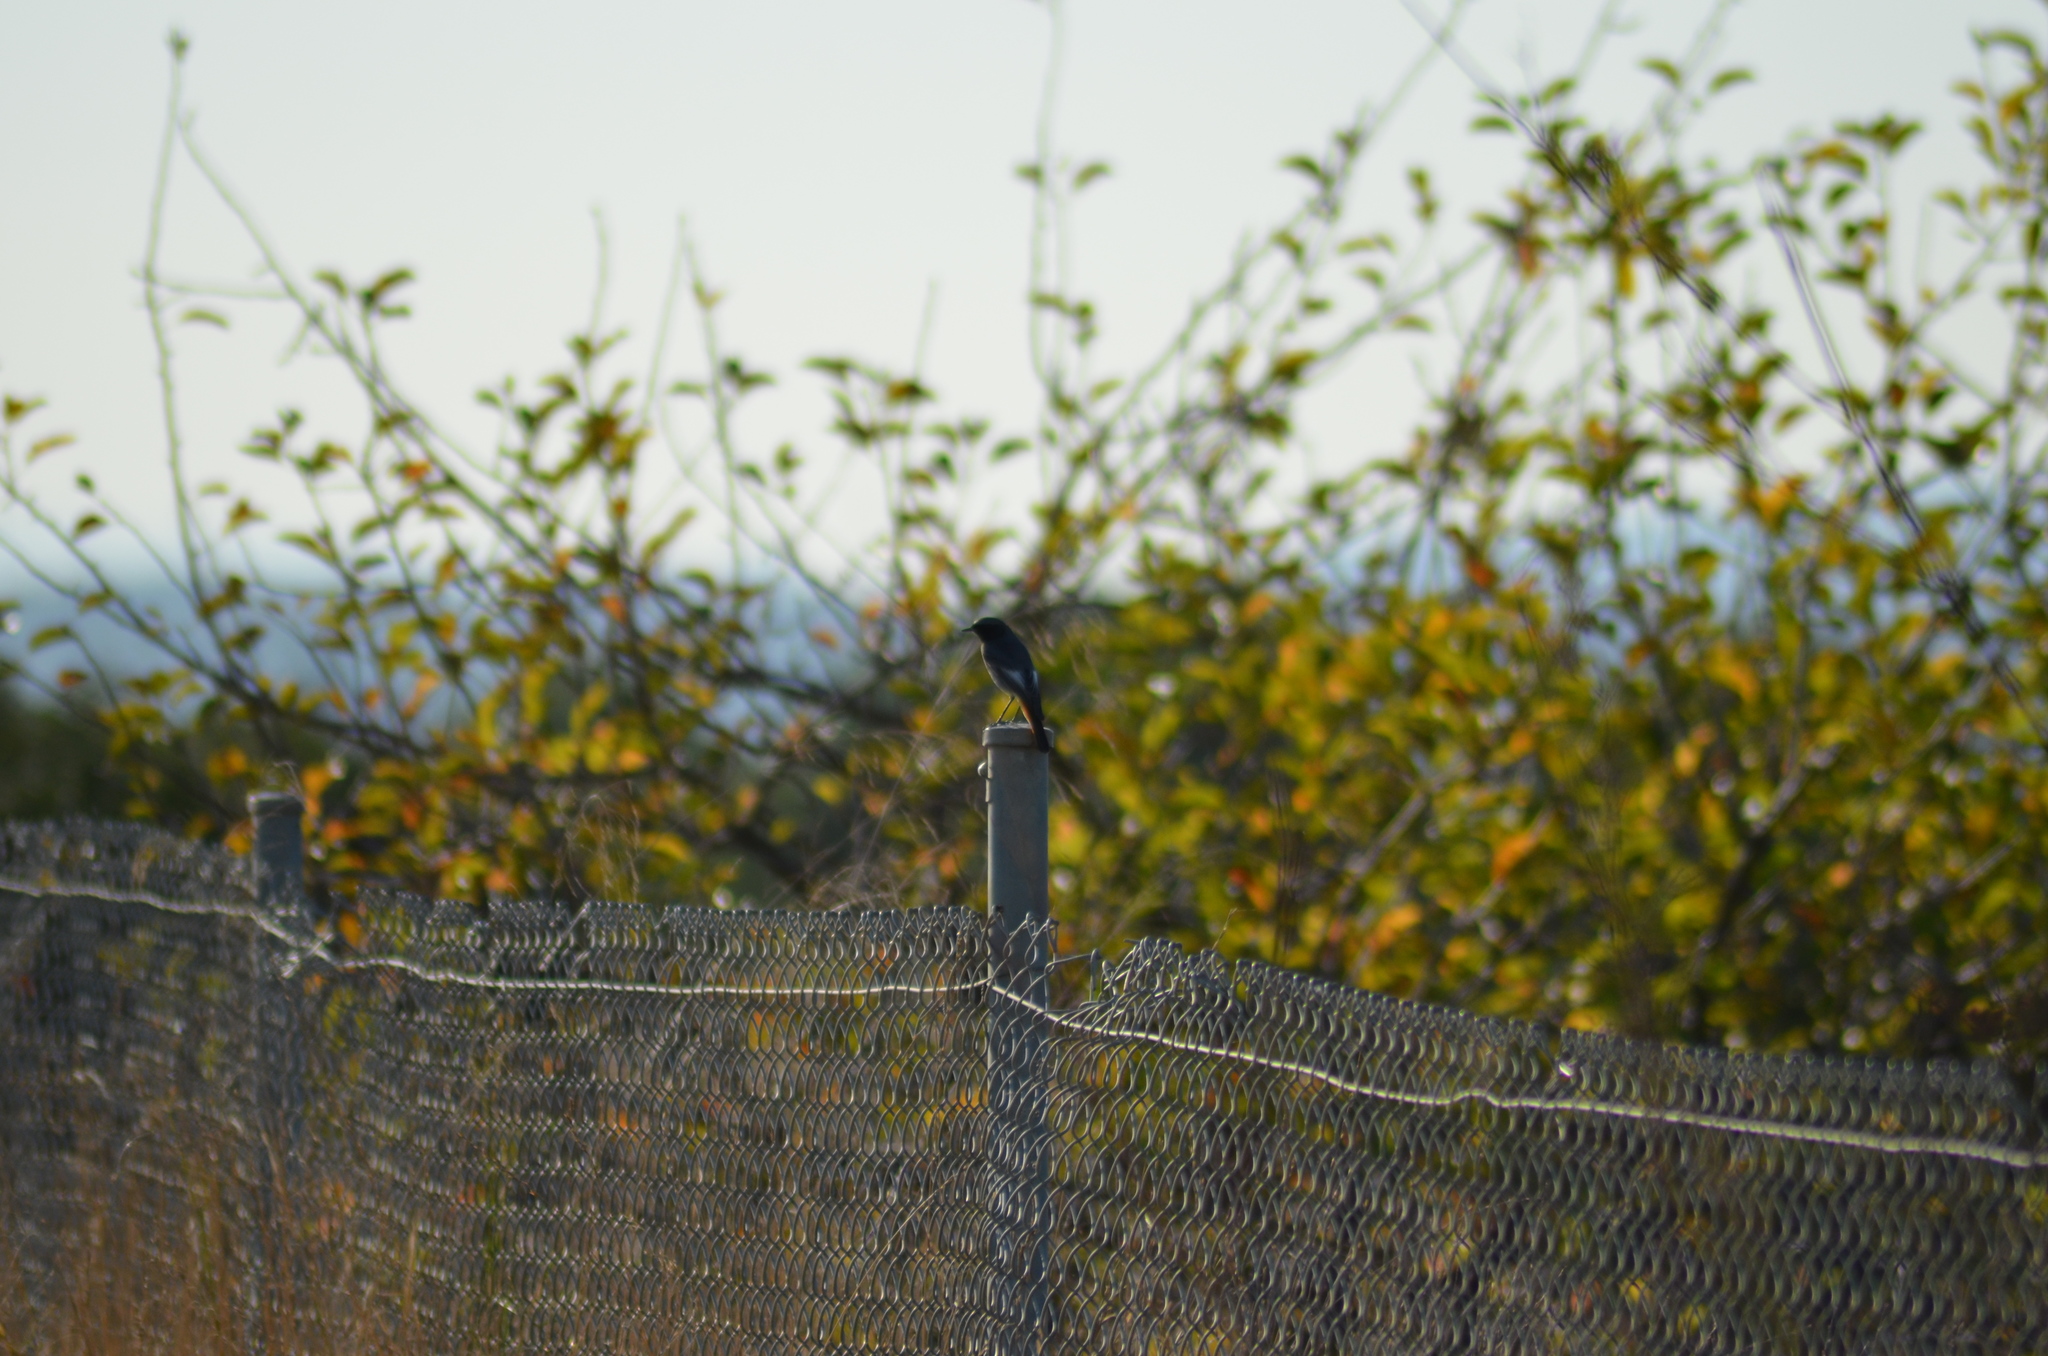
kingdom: Animalia
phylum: Chordata
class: Aves
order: Passeriformes
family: Muscicapidae
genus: Phoenicurus
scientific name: Phoenicurus ochruros
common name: Black redstart
